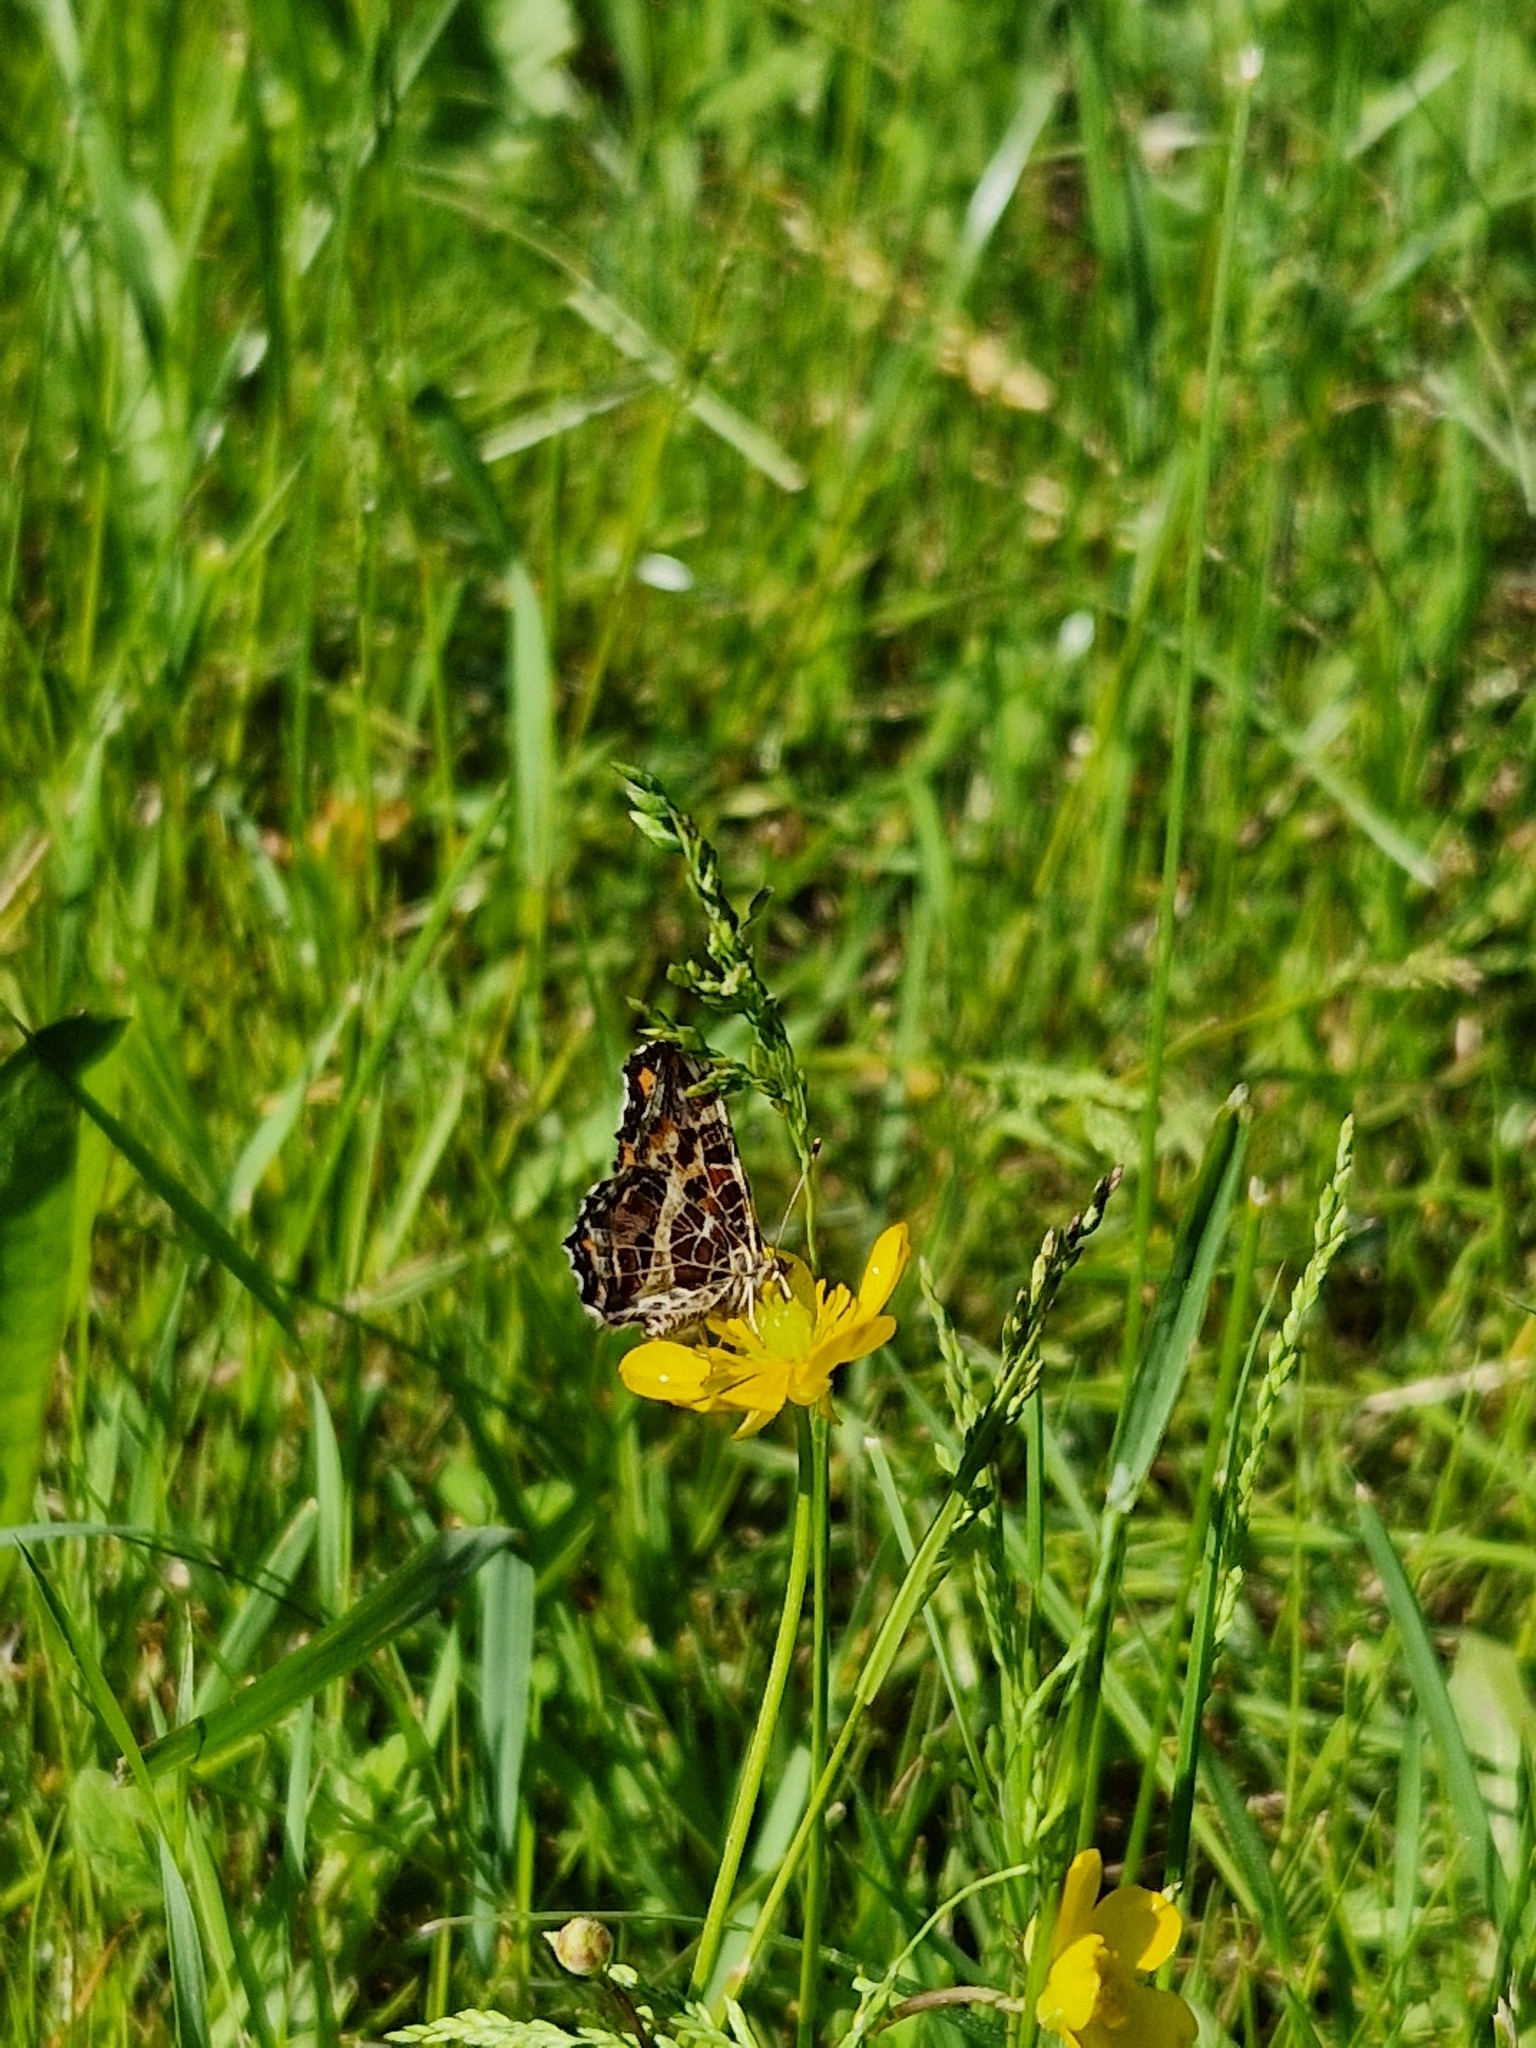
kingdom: Animalia
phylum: Arthropoda
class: Insecta
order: Lepidoptera
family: Nymphalidae
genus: Araschnia
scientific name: Araschnia levana
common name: Map butterfly
